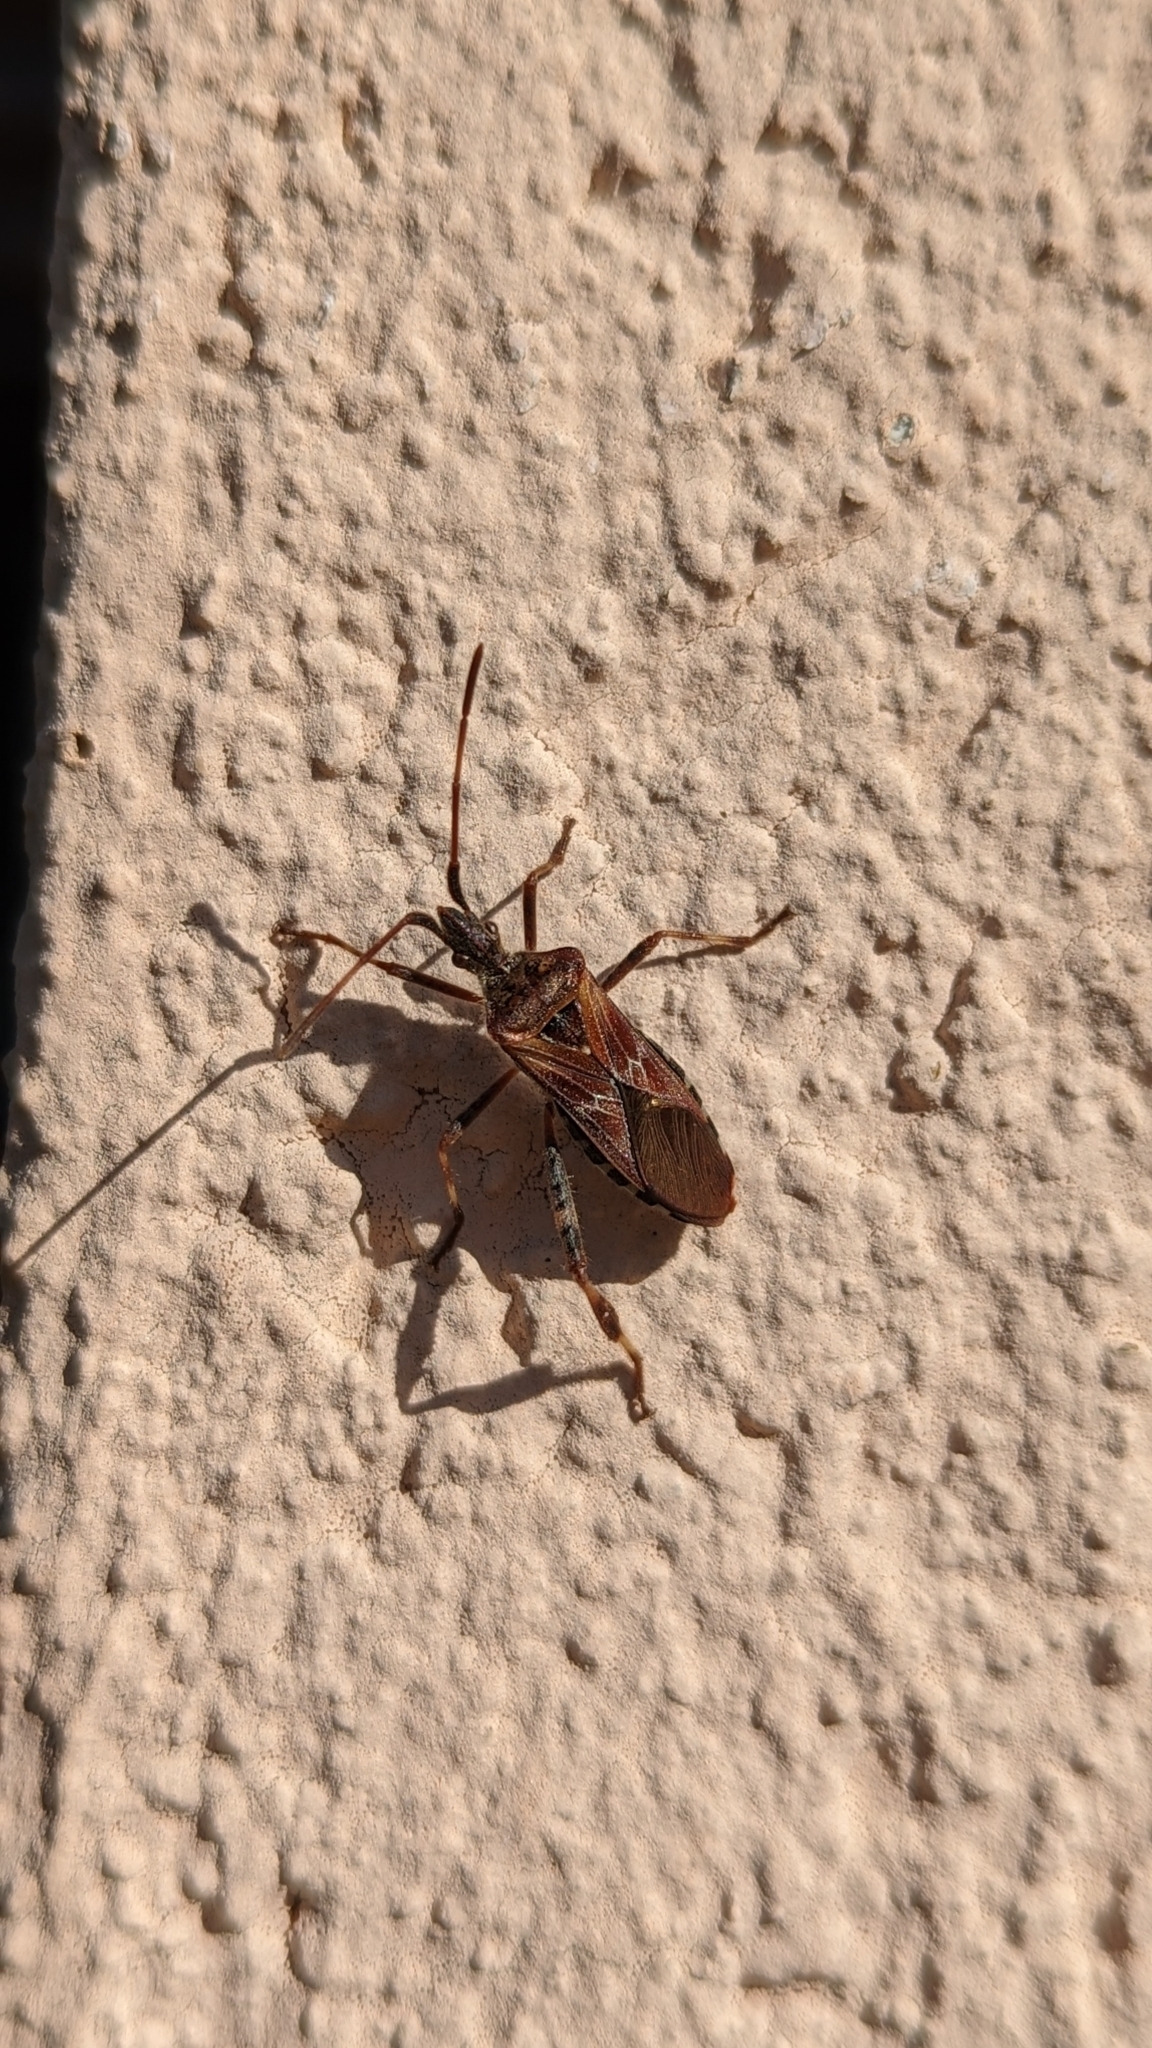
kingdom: Animalia
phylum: Arthropoda
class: Insecta
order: Hemiptera
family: Coreidae
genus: Leptoglossus
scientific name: Leptoglossus occidentalis
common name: Western conifer-seed bug
